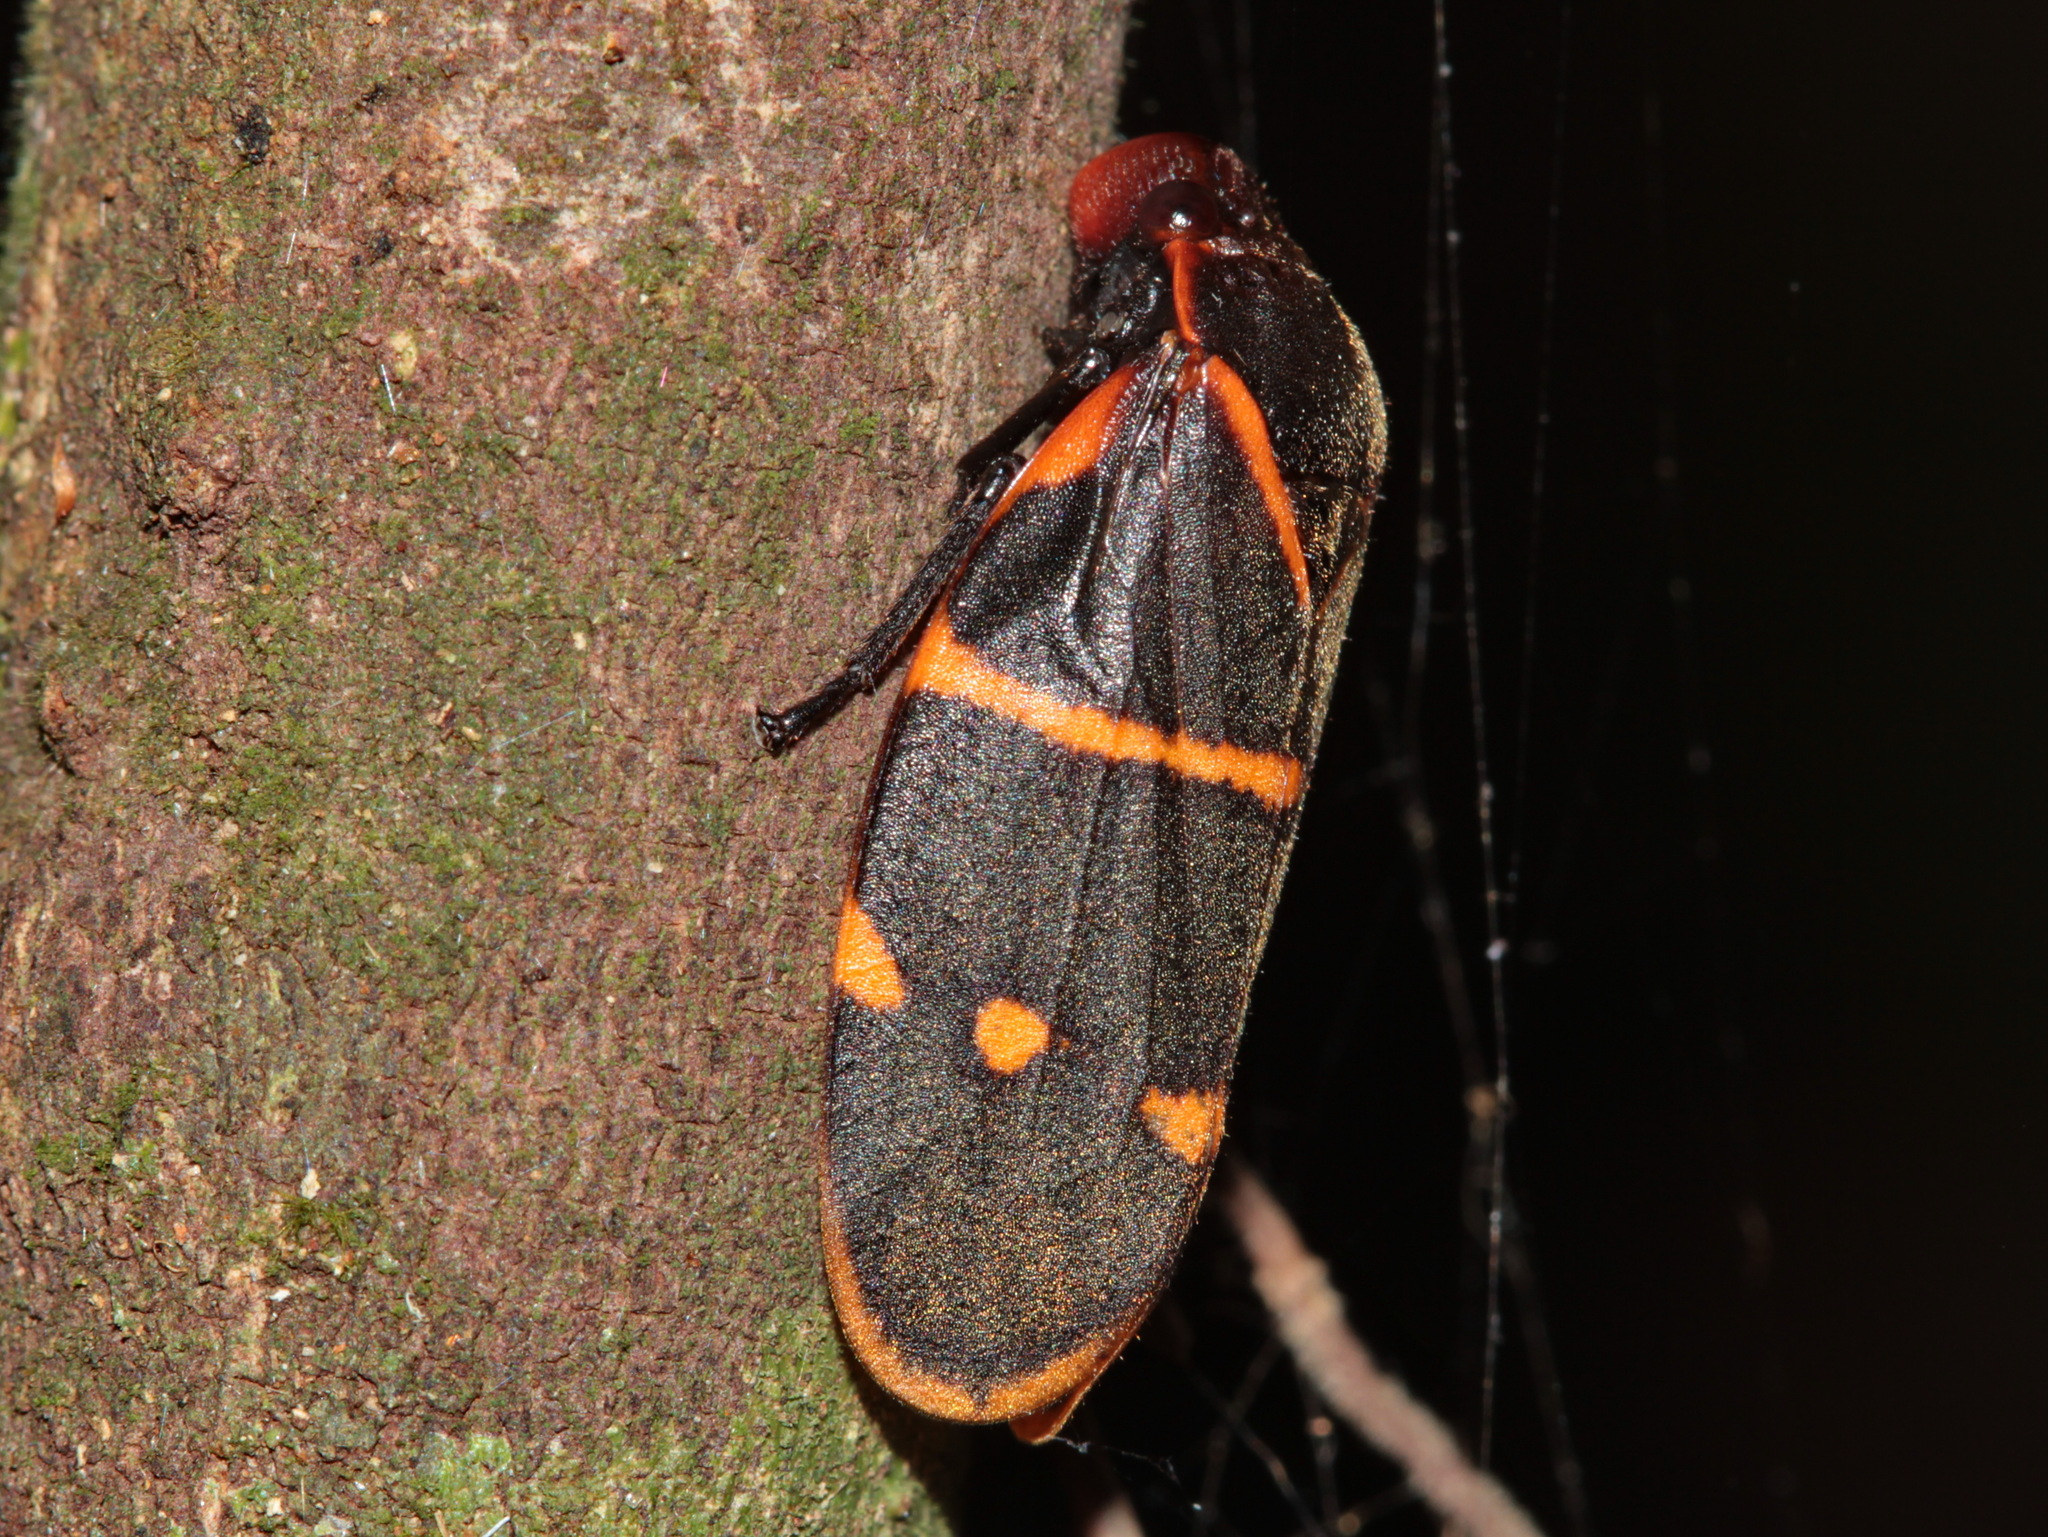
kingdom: Animalia
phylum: Arthropoda
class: Insecta
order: Hemiptera
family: Cercopidae
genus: Phymatostetha
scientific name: Phymatostetha triseriata
